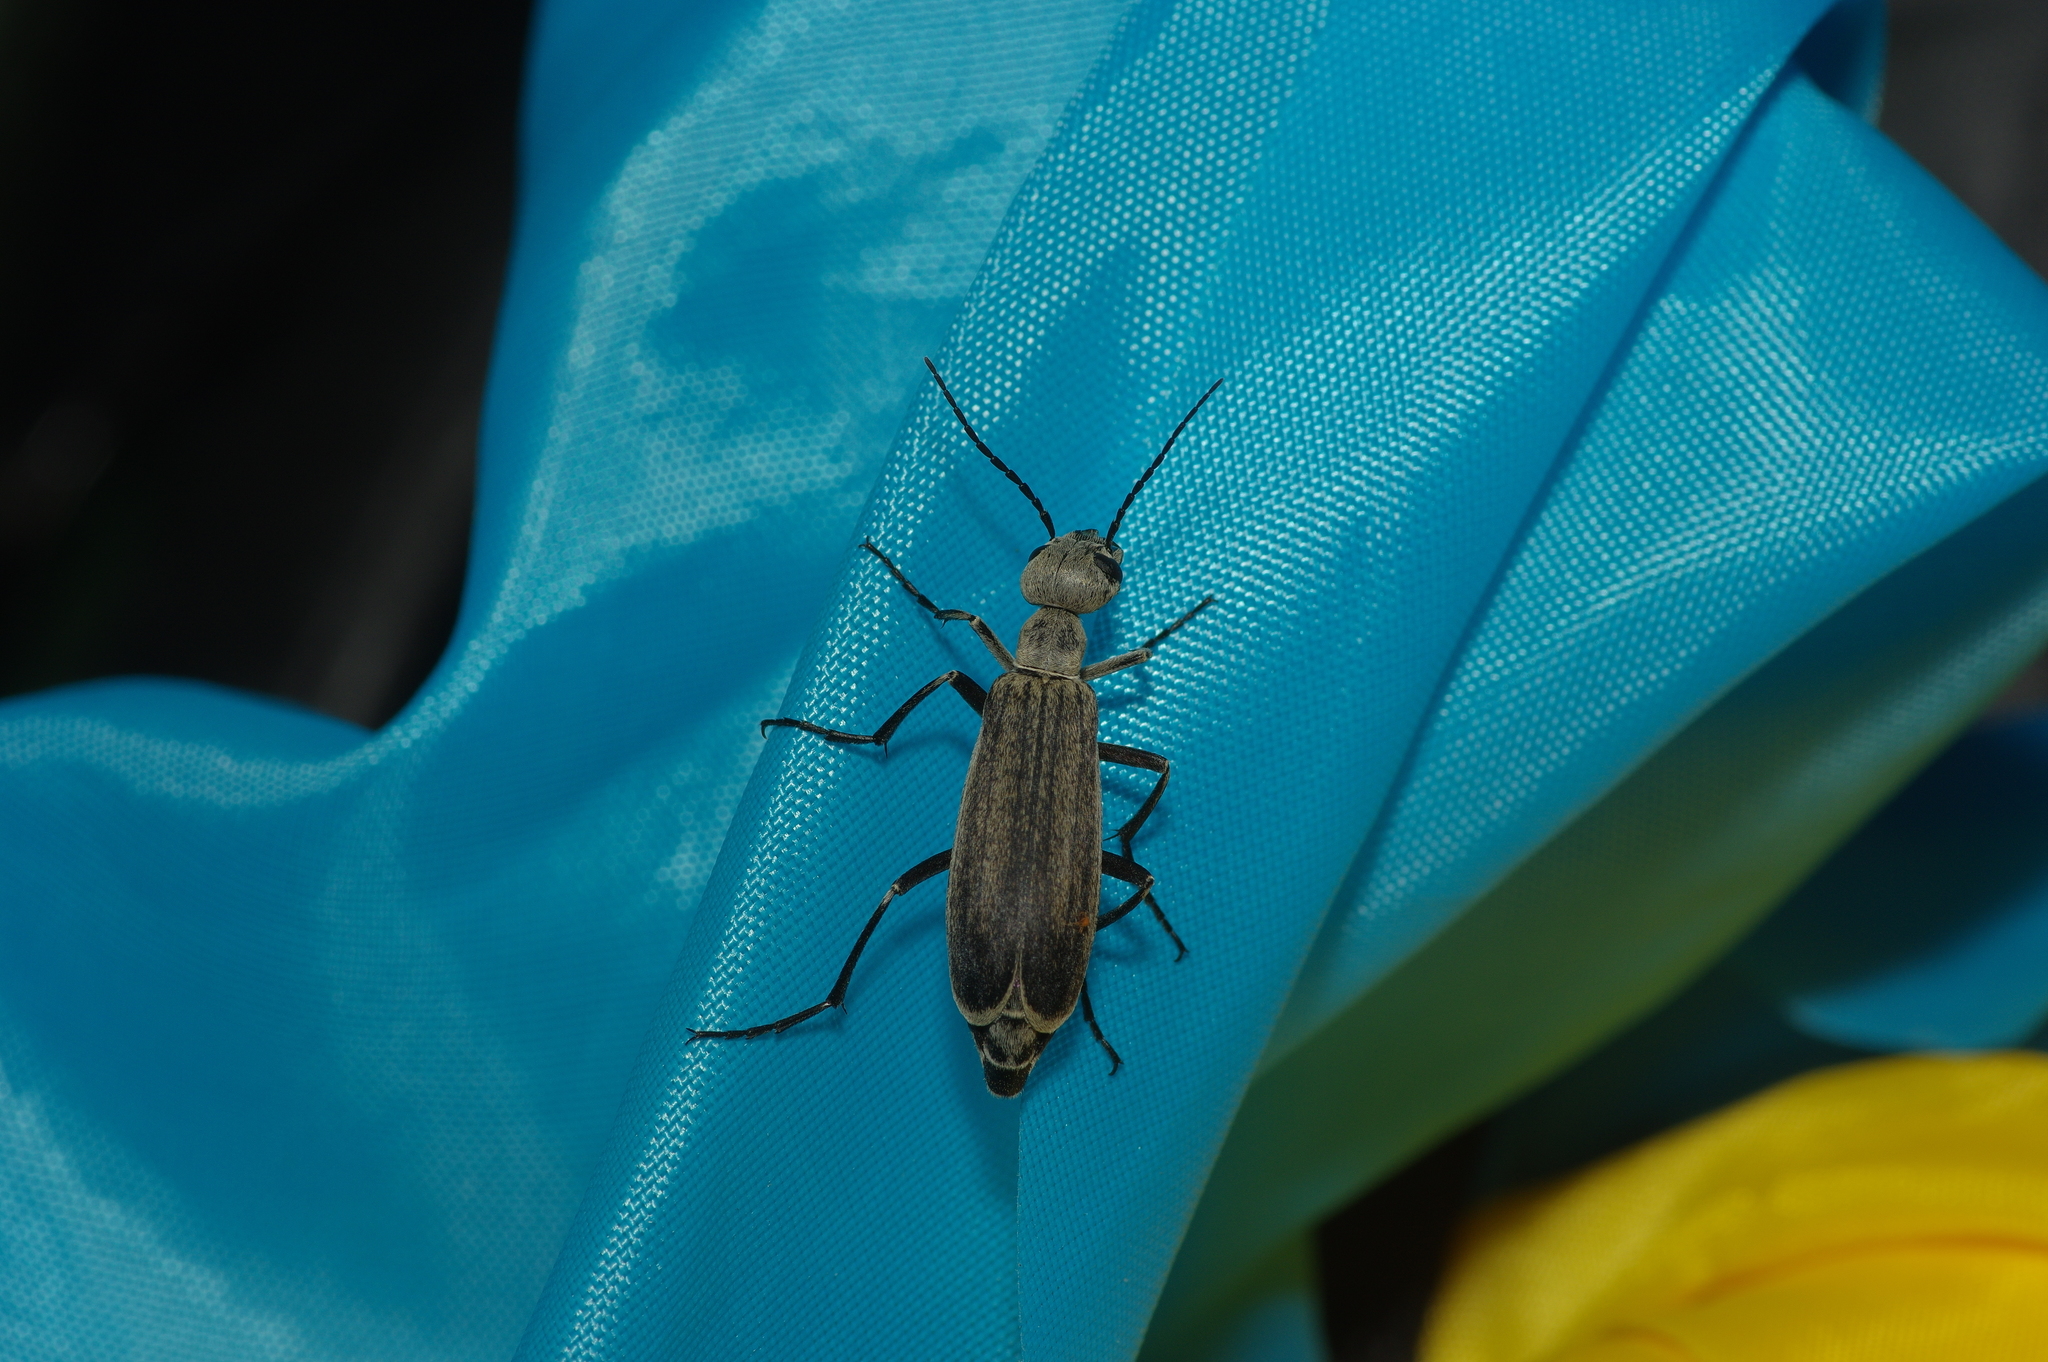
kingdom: Animalia
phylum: Arthropoda
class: Insecta
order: Coleoptera
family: Meloidae
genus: Epicauta
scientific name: Epicauta sublineata
